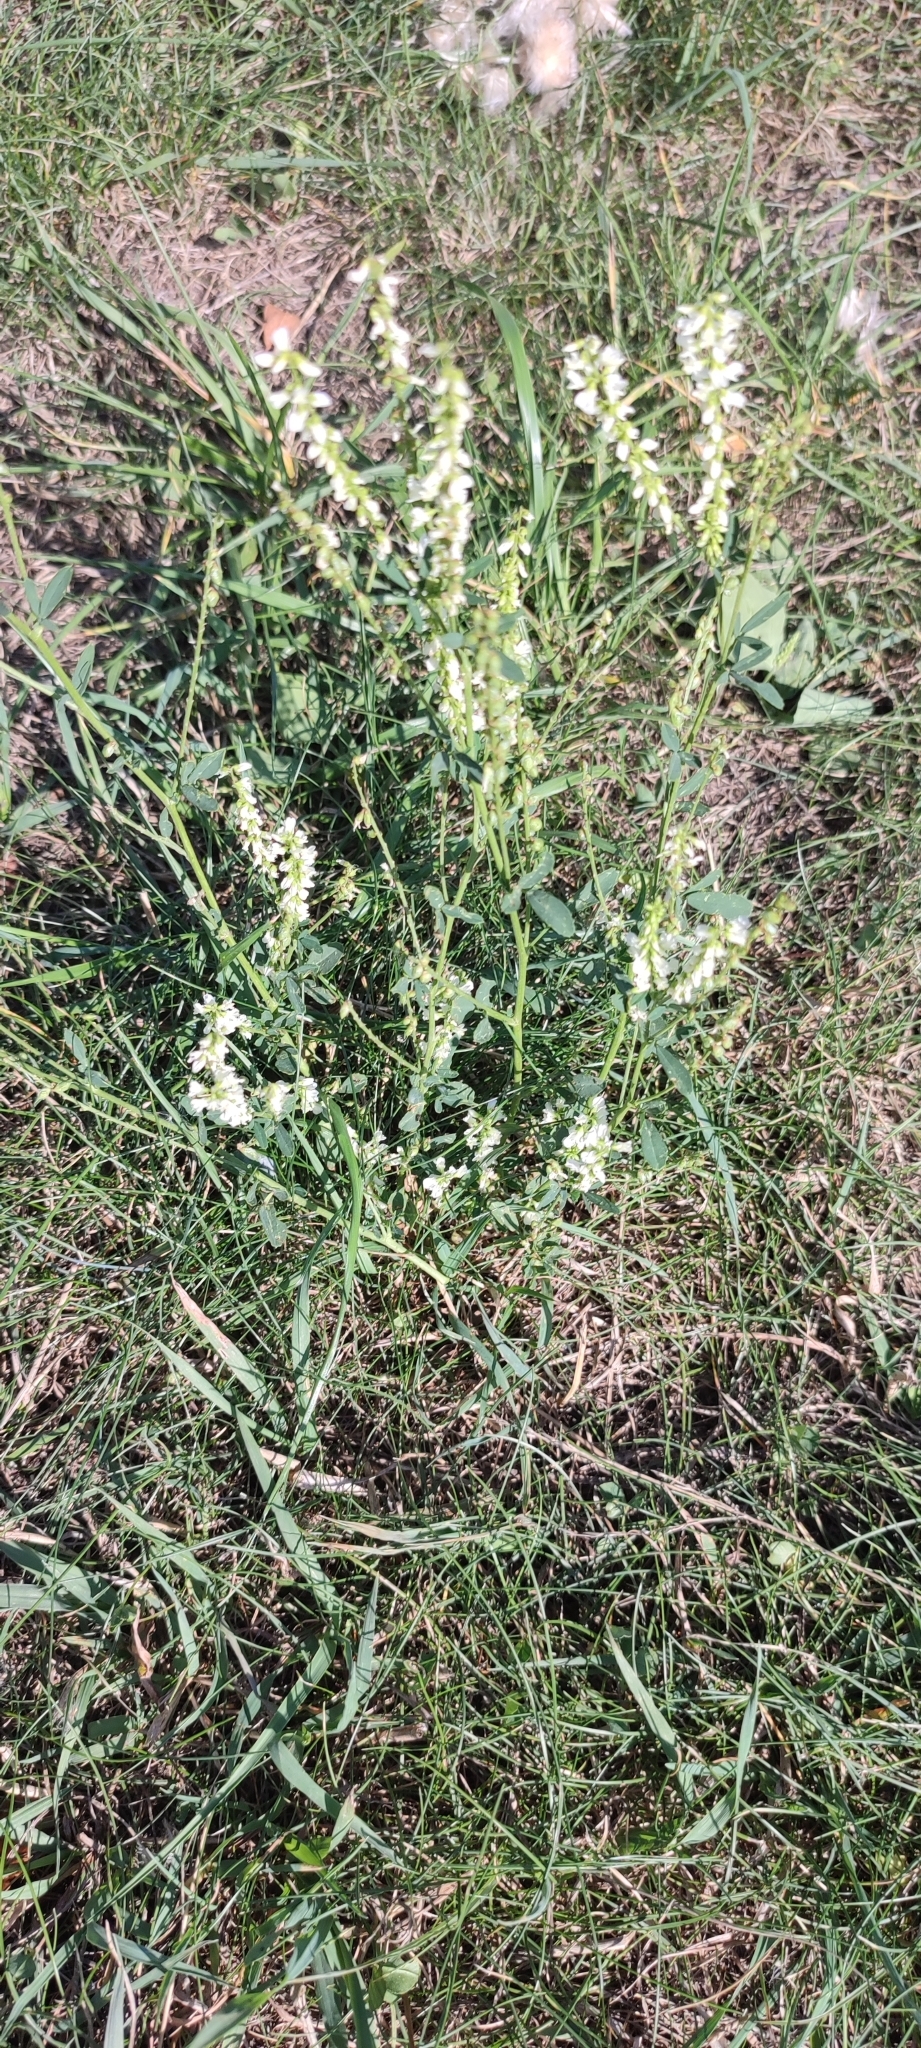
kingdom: Plantae
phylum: Tracheophyta
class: Magnoliopsida
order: Fabales
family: Fabaceae
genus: Melilotus
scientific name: Melilotus albus
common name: White melilot
